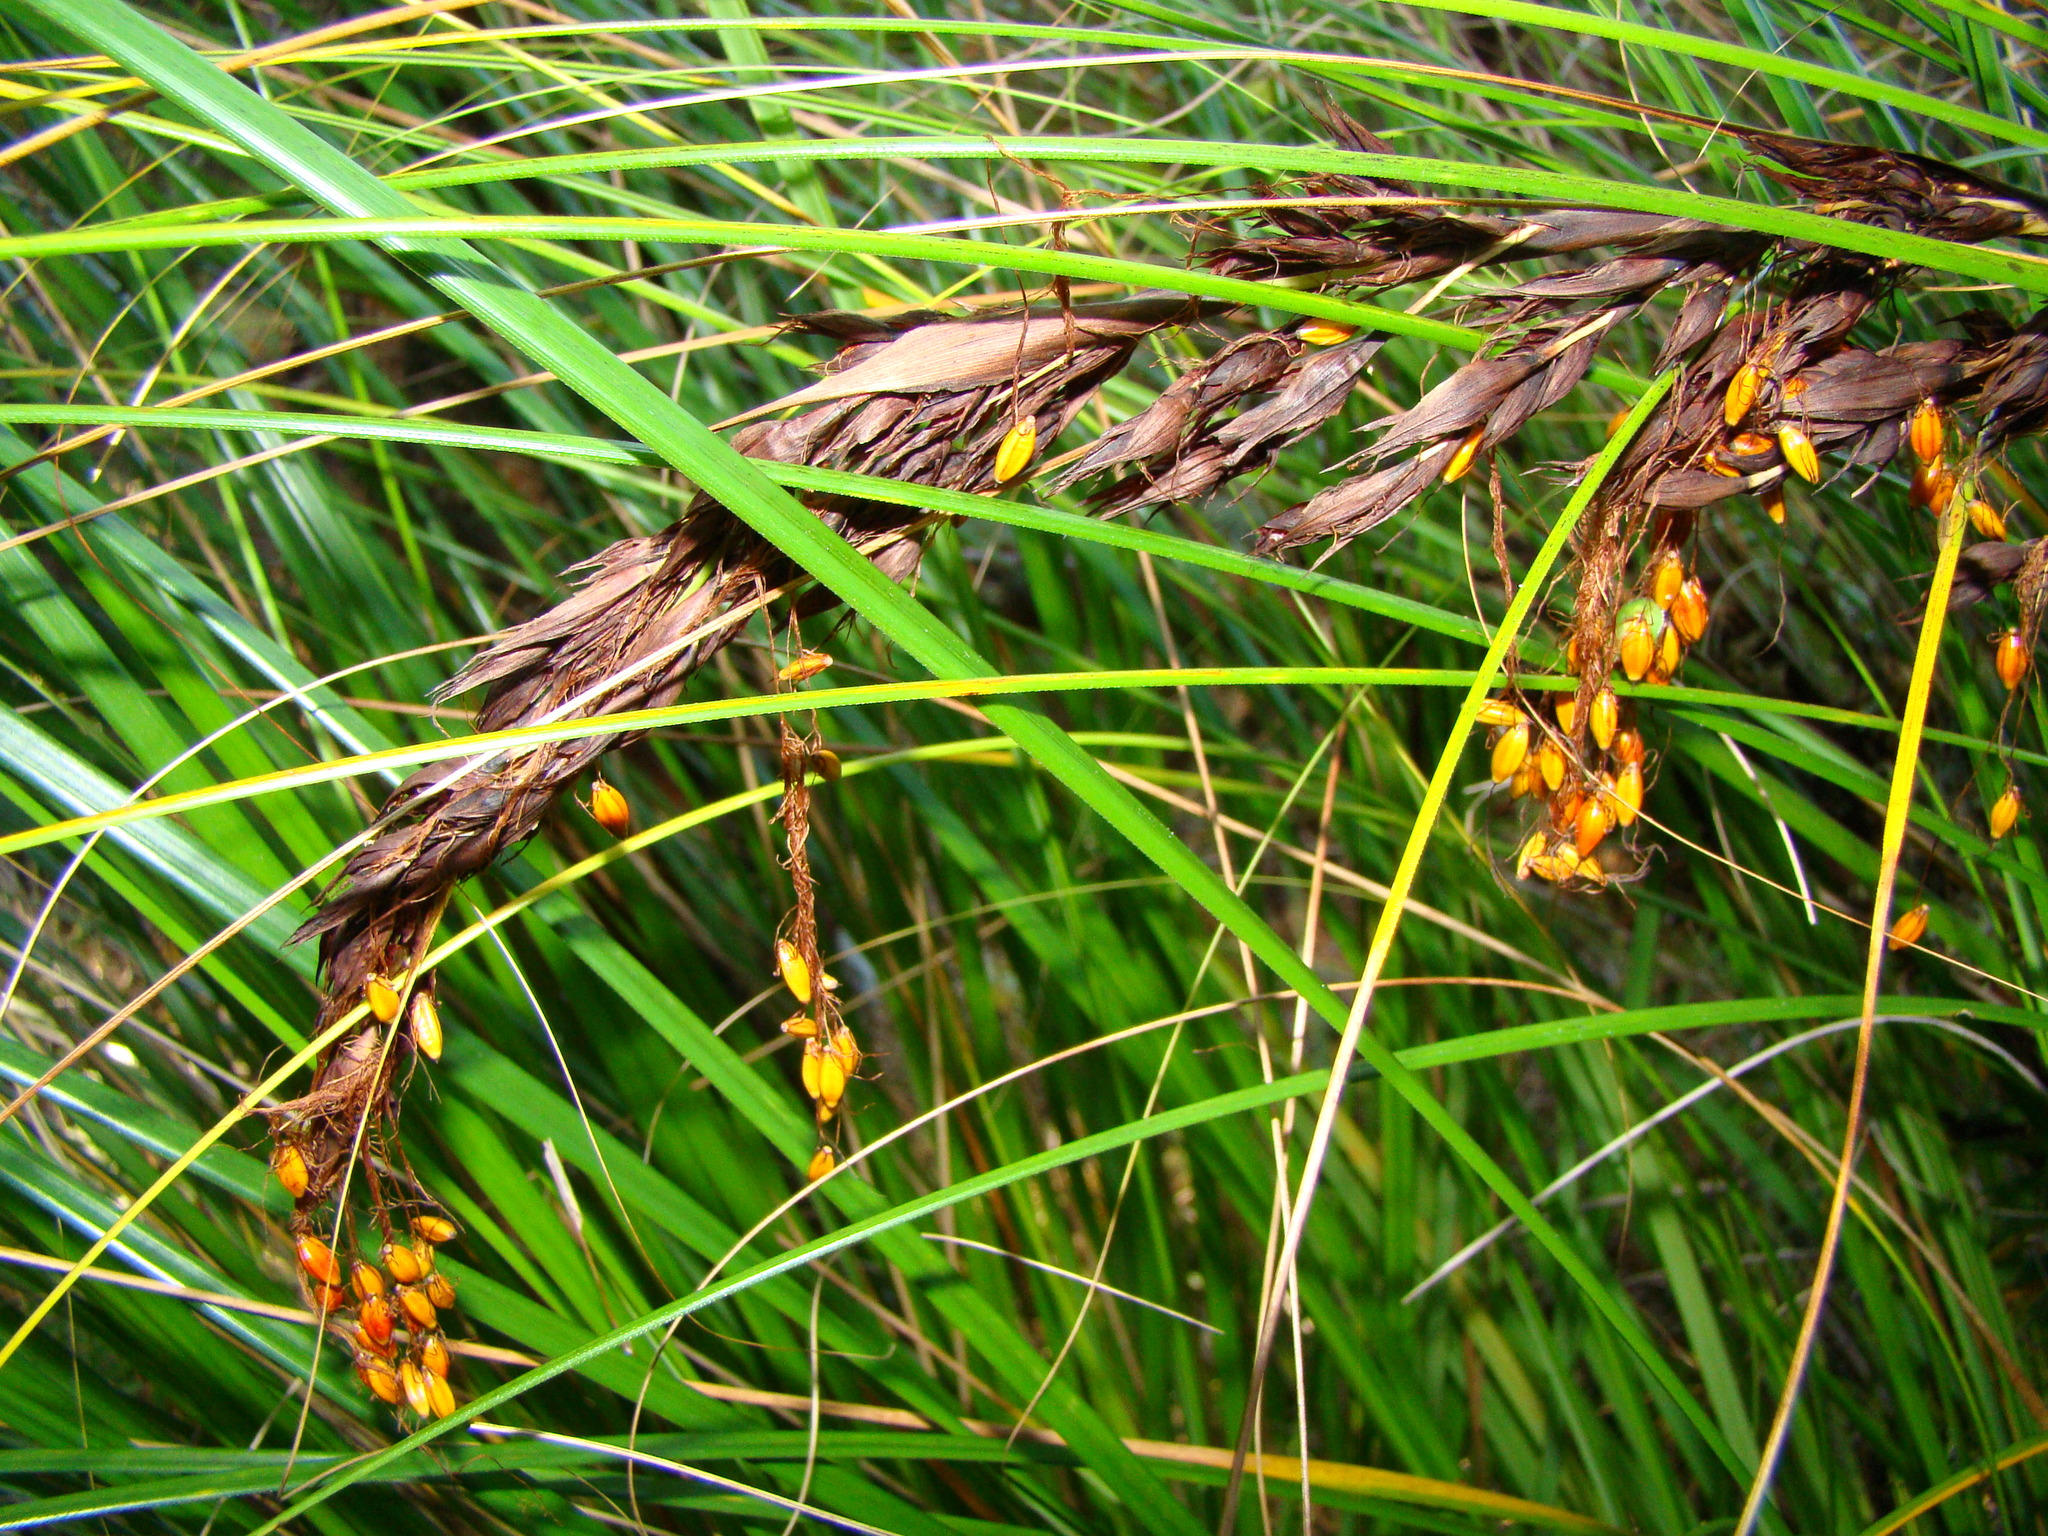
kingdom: Plantae
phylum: Tracheophyta
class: Liliopsida
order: Poales
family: Cyperaceae
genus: Gahnia
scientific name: Gahnia procera
